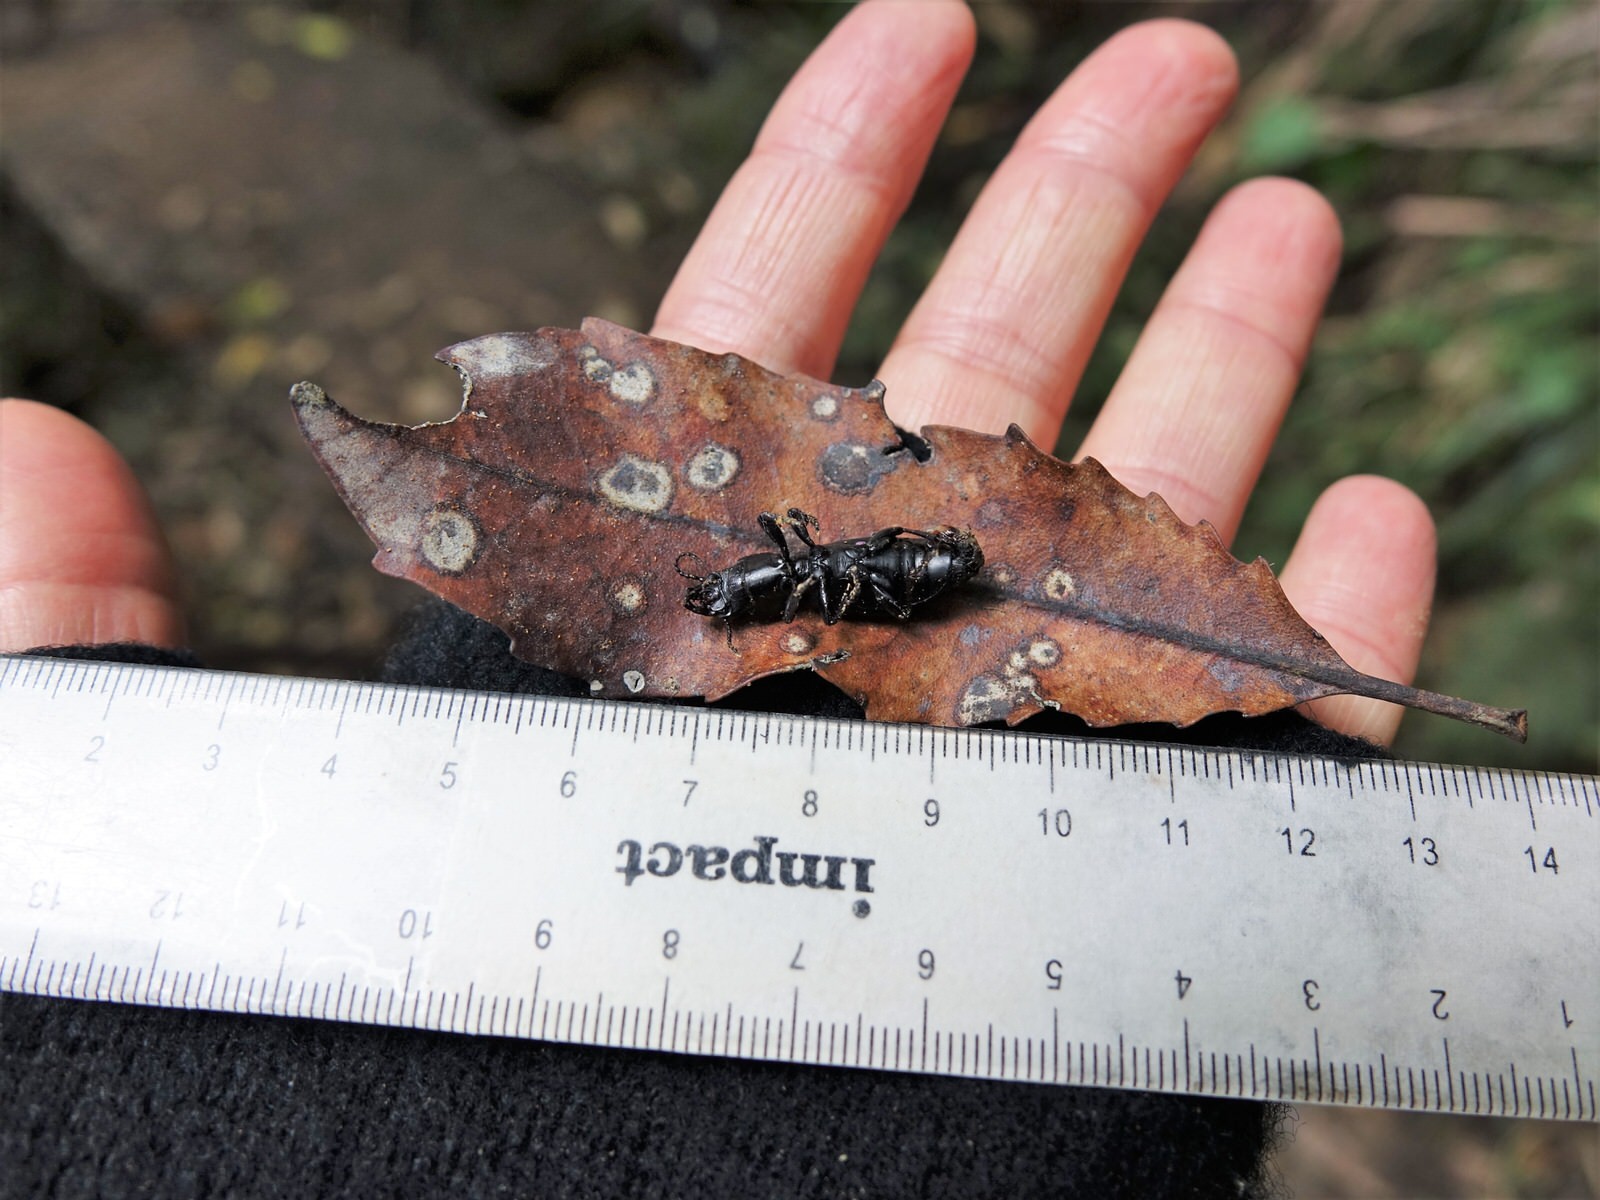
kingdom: Animalia
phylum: Arthropoda
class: Insecta
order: Coleoptera
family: Carabidae
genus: Mecodema
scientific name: Mecodema crenaticolle
